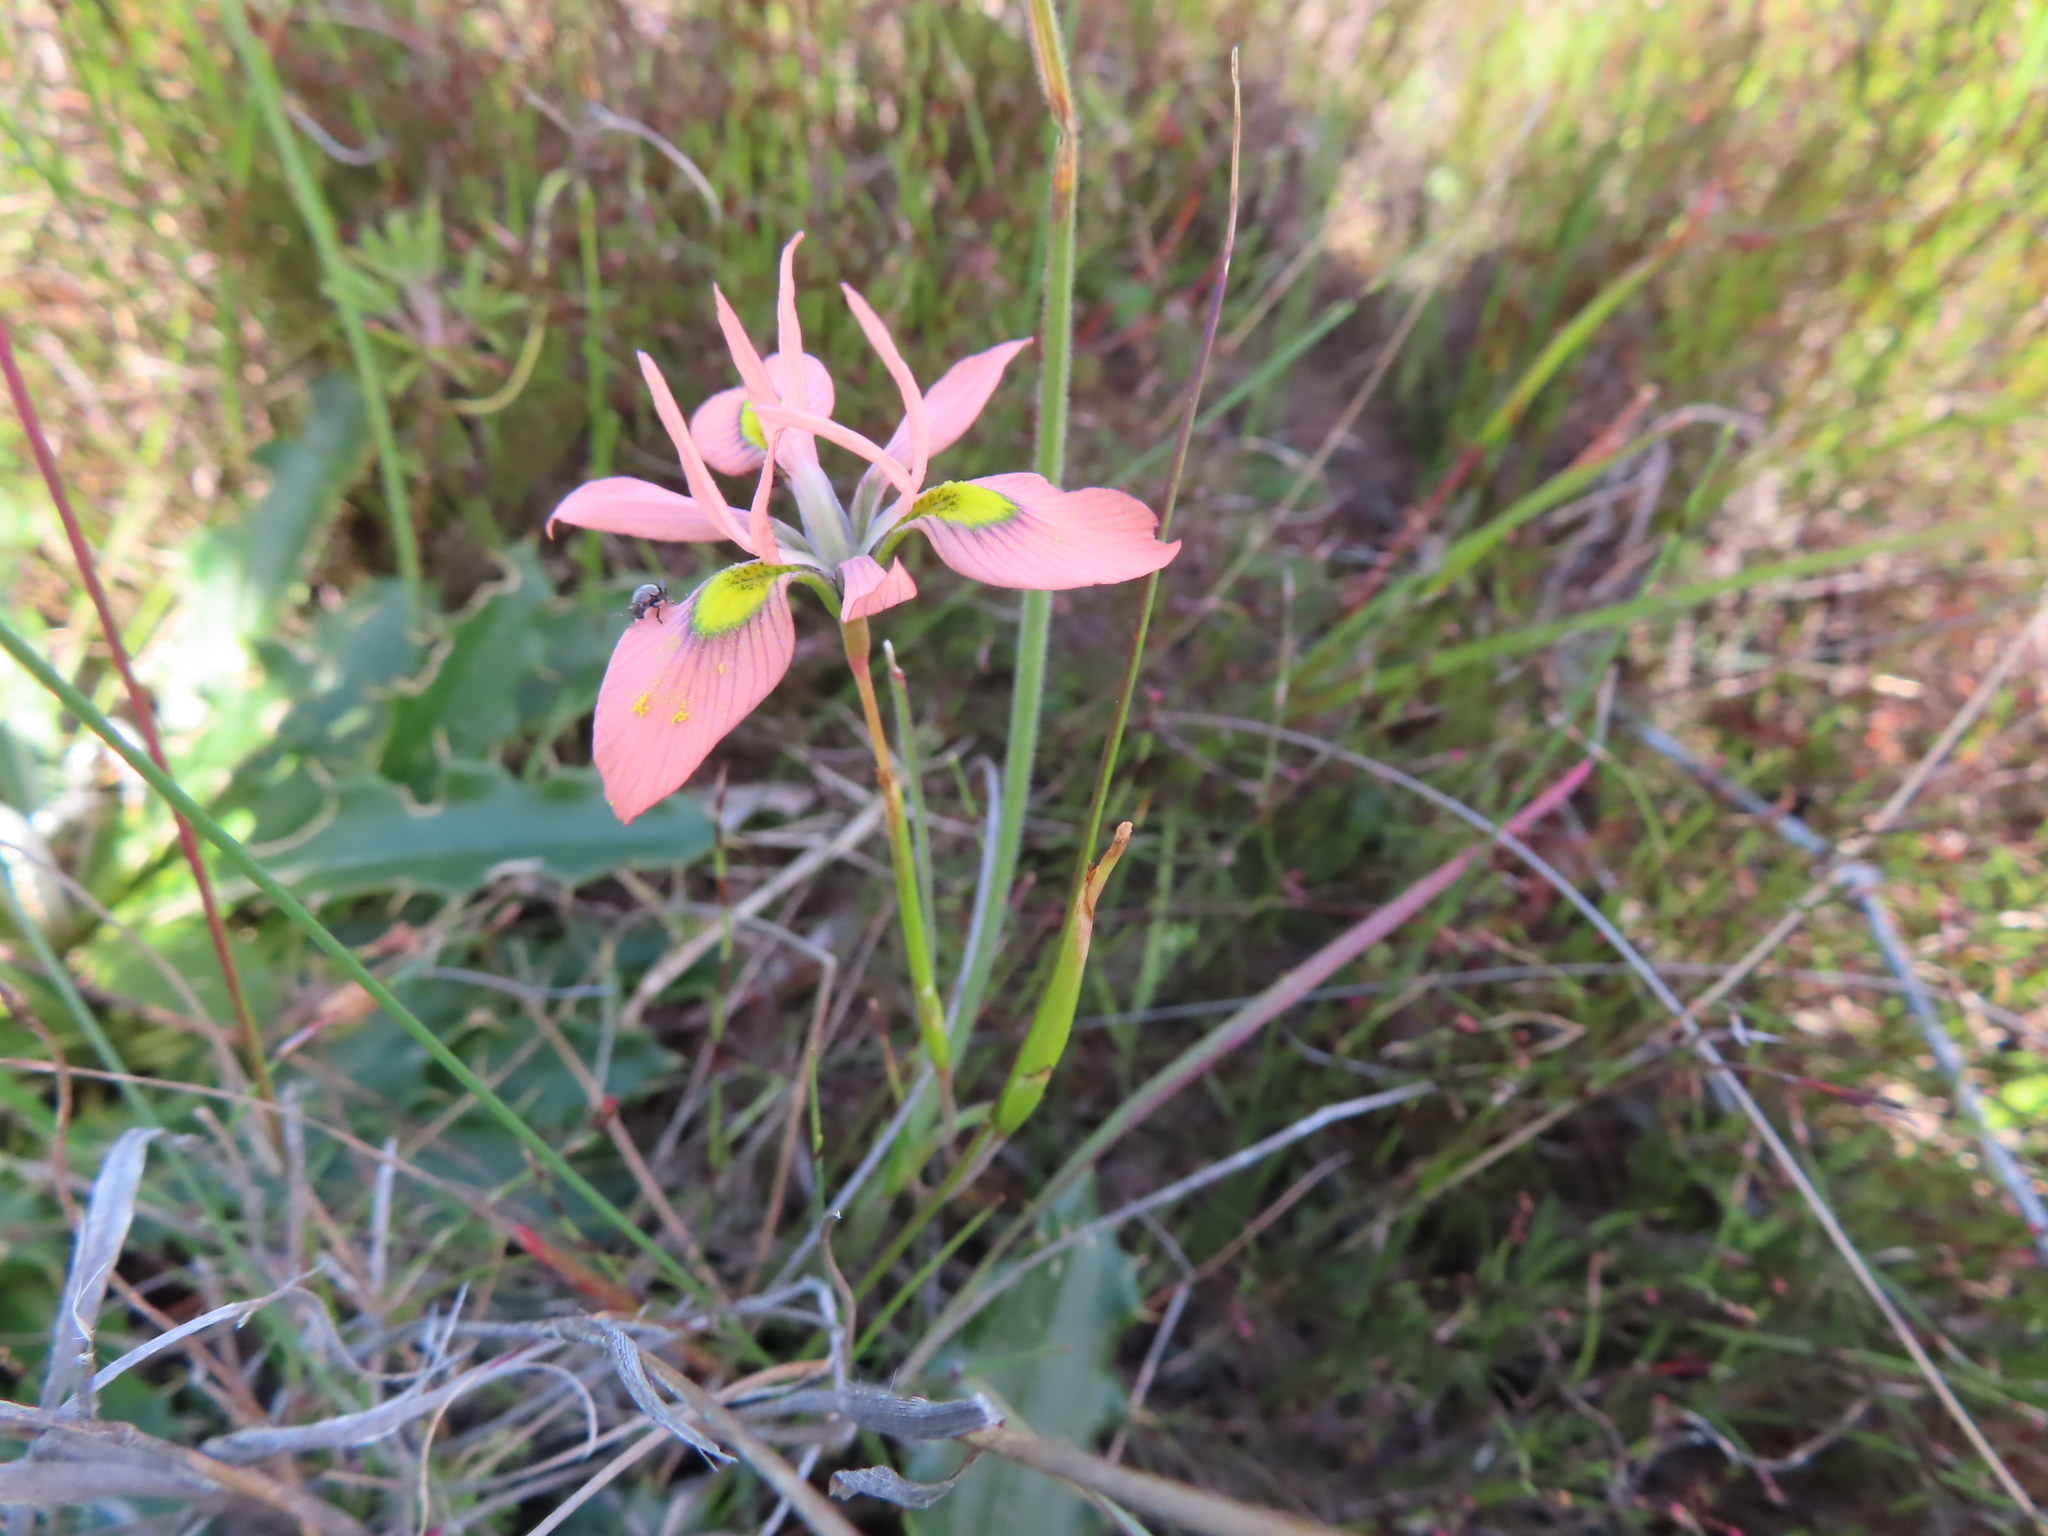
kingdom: Plantae
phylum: Tracheophyta
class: Liliopsida
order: Asparagales
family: Iridaceae
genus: Moraea
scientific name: Moraea papilionacea
